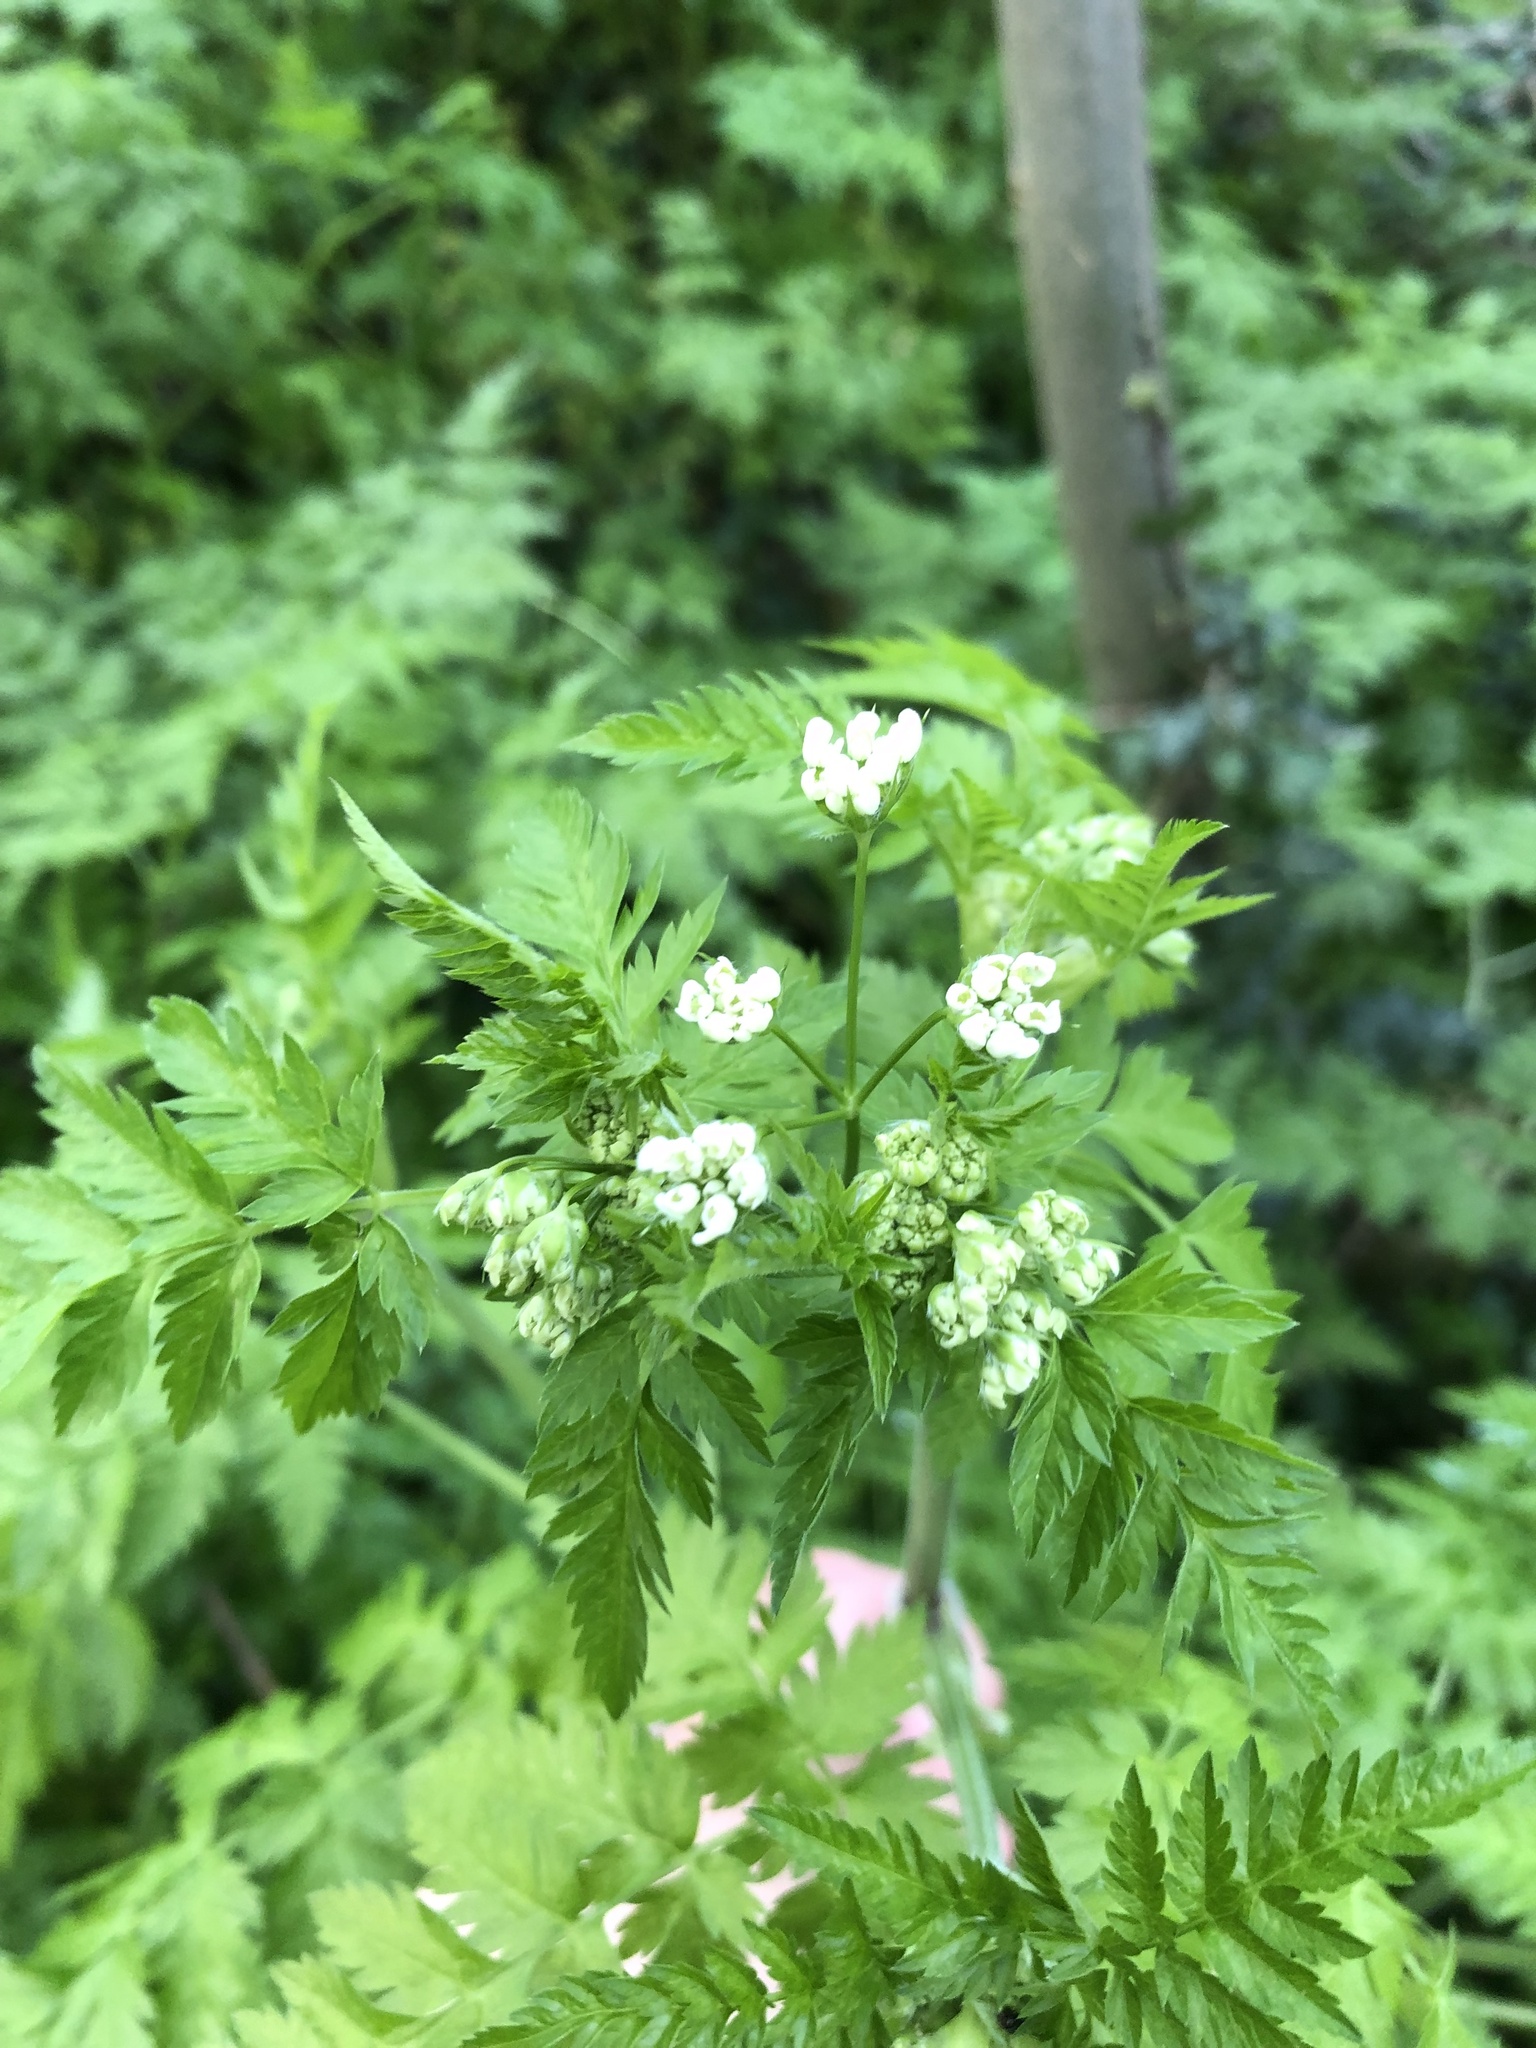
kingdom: Plantae
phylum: Tracheophyta
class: Magnoliopsida
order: Apiales
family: Apiaceae
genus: Anthriscus
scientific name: Anthriscus sylvestris
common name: Cow parsley
